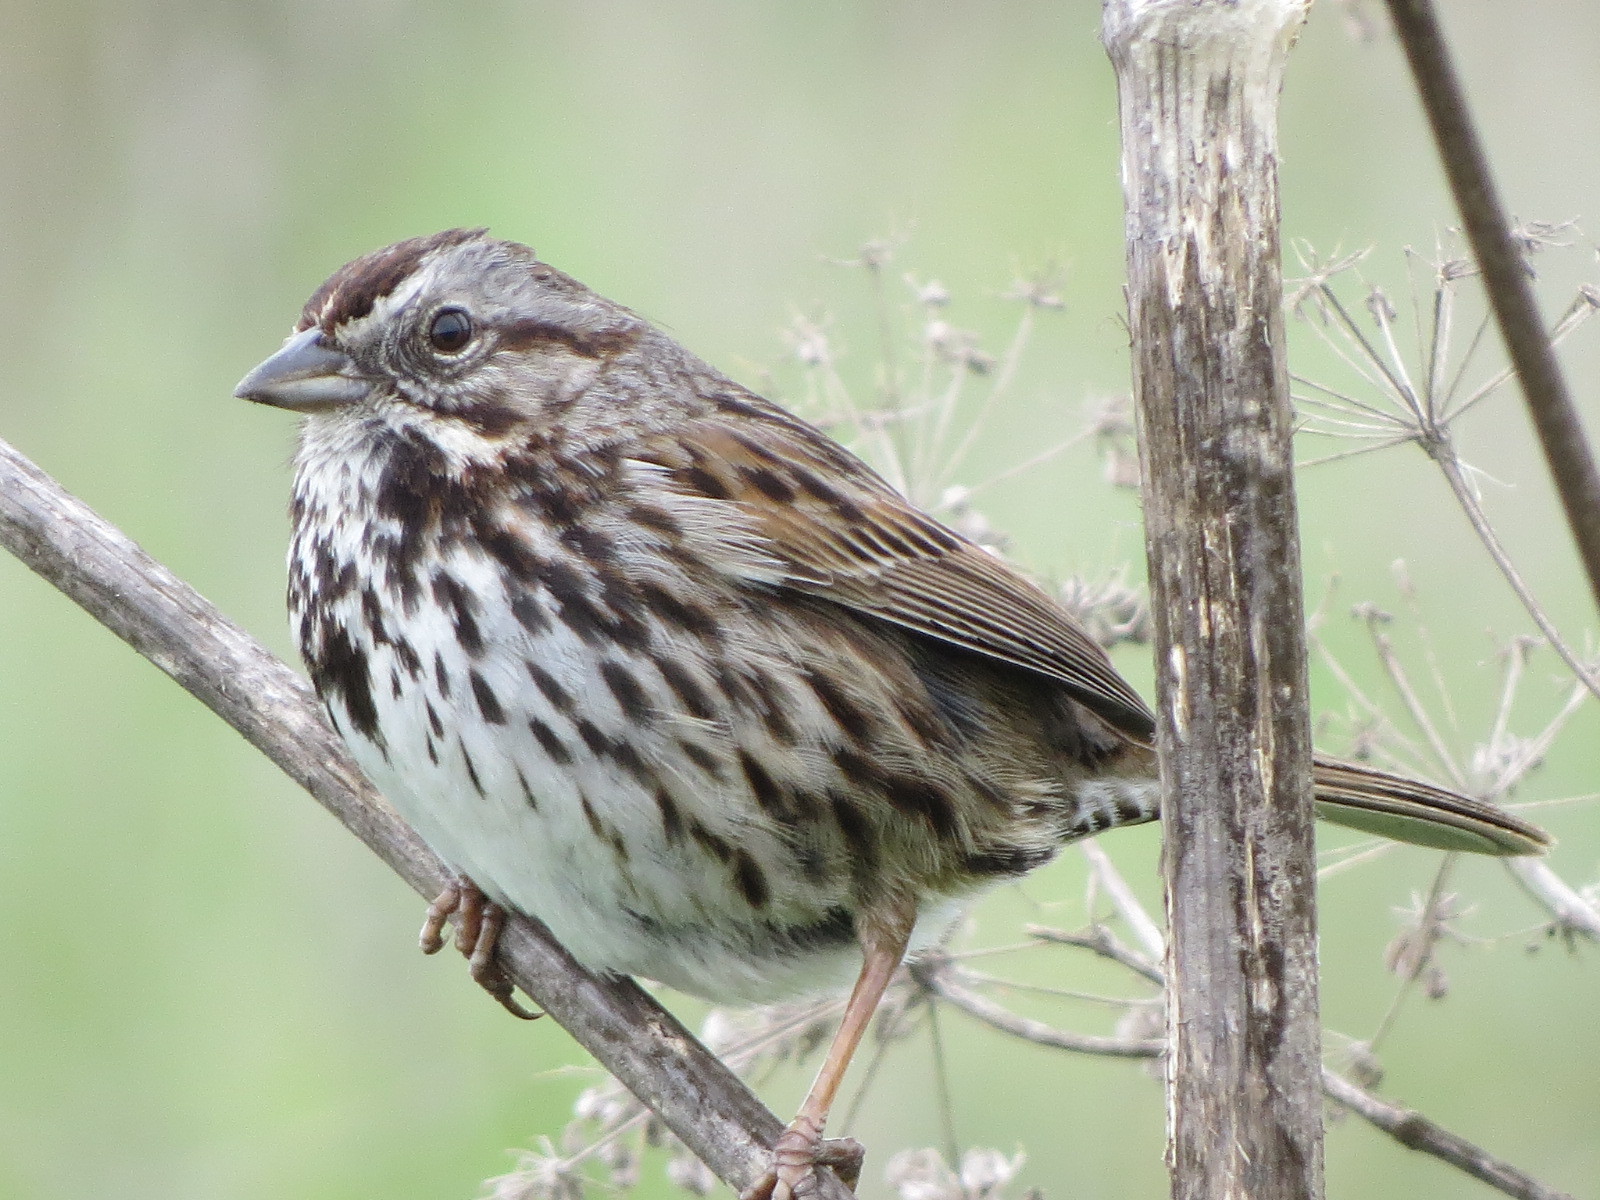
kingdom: Animalia
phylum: Chordata
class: Aves
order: Passeriformes
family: Passerellidae
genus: Melospiza
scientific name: Melospiza melodia
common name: Song sparrow
